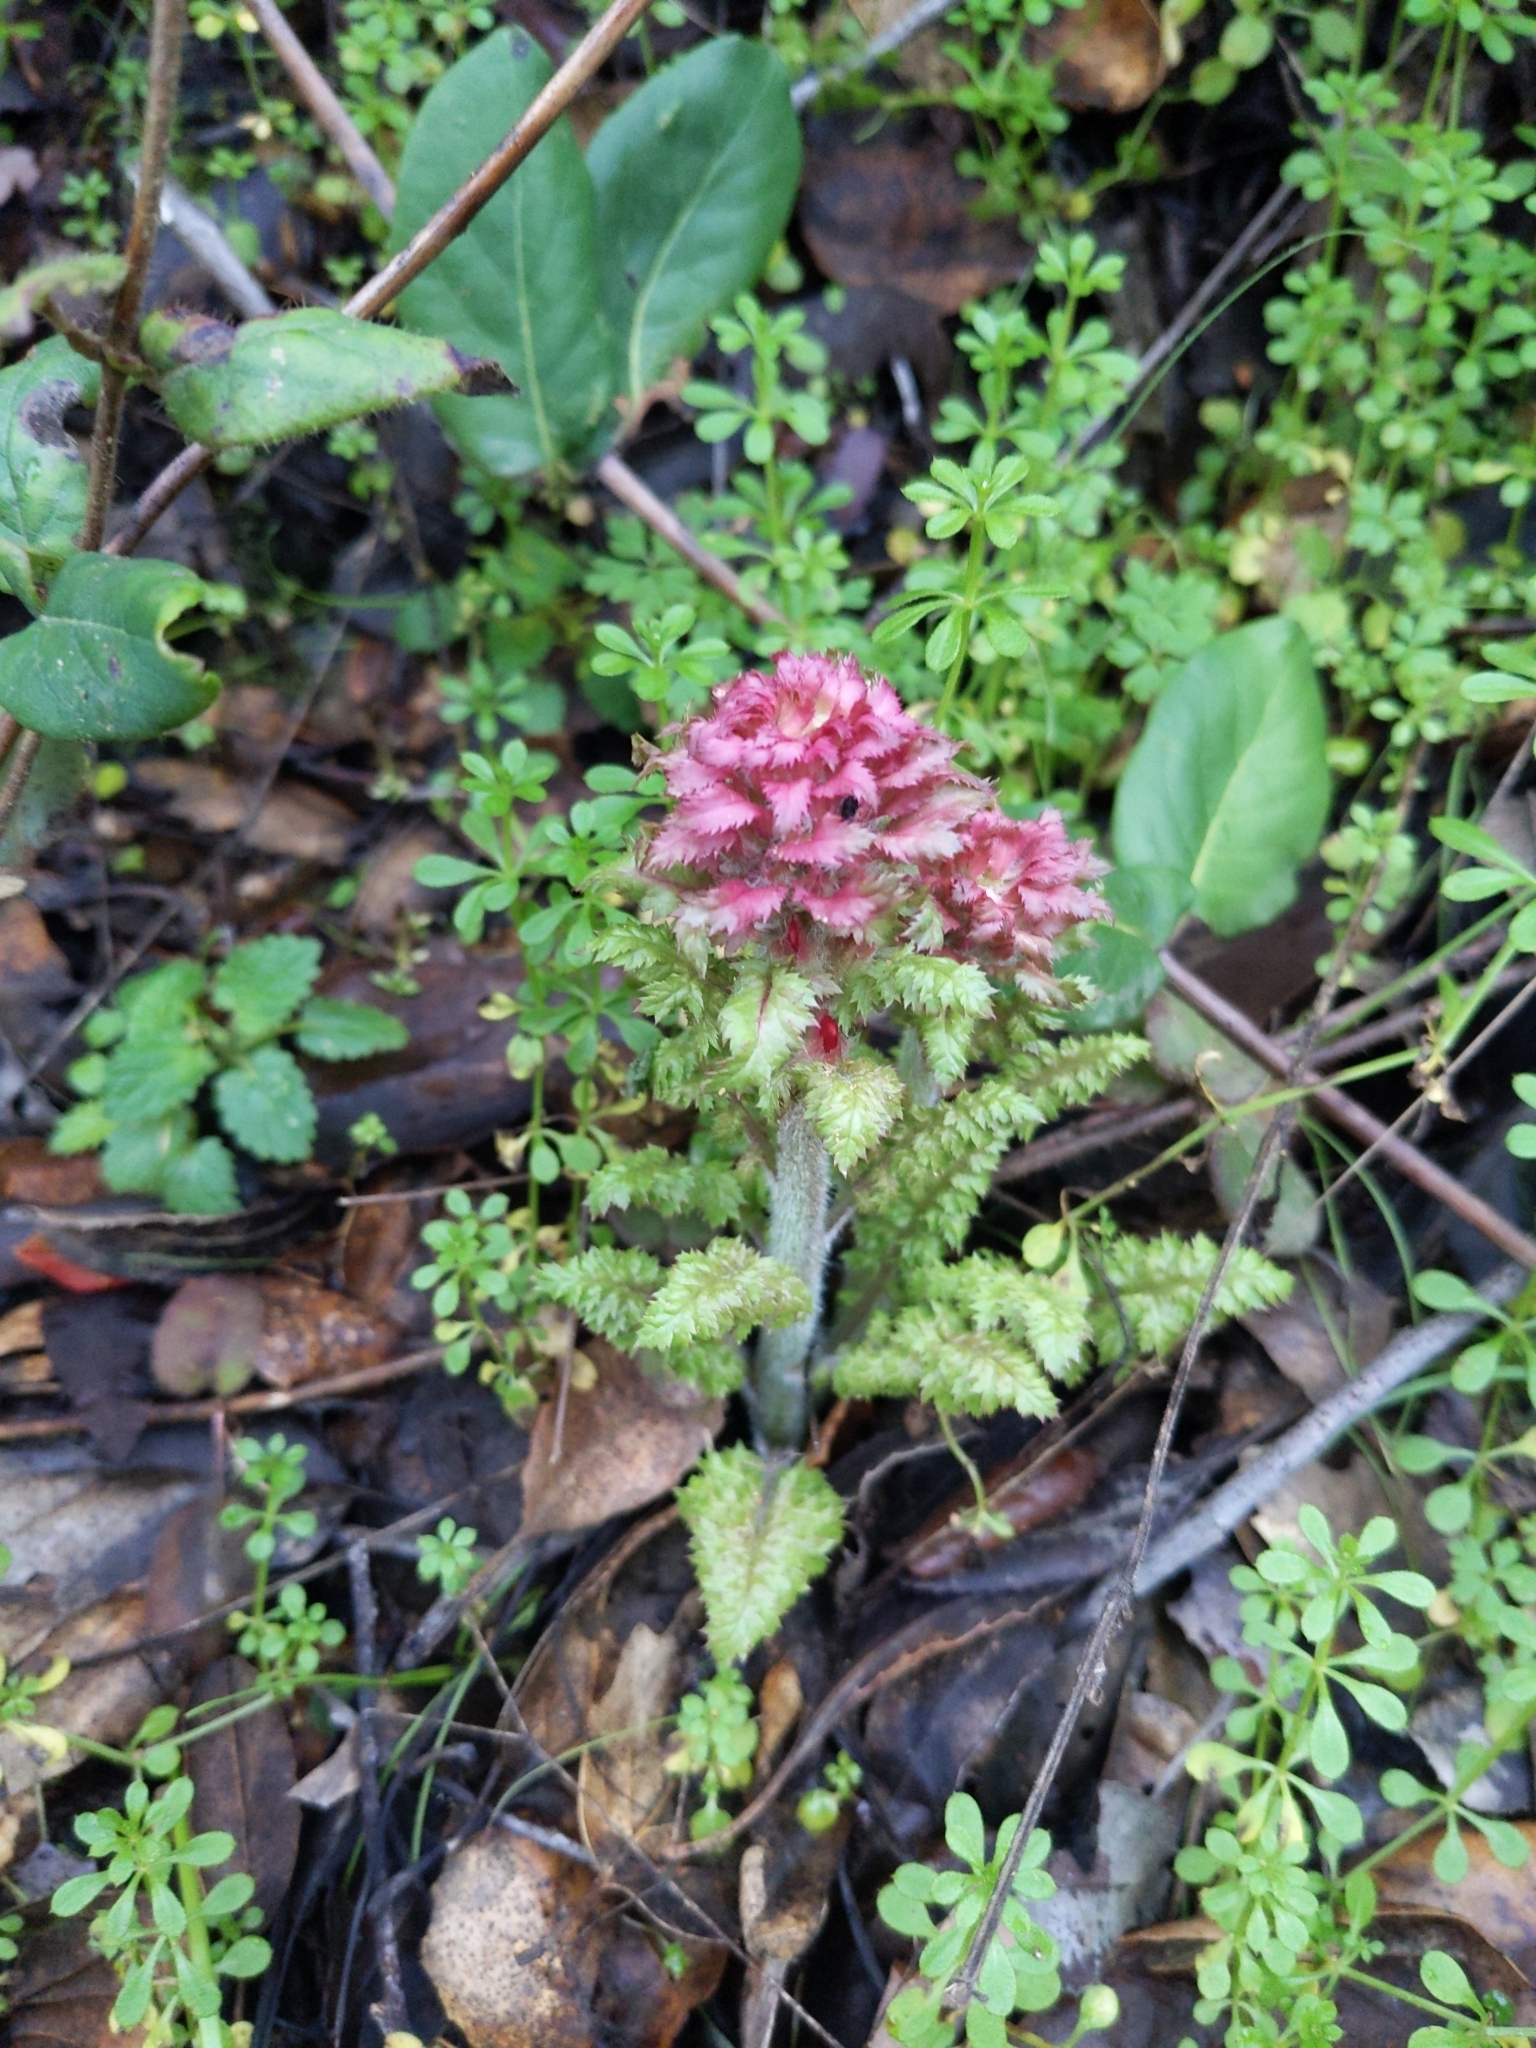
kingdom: Plantae
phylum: Tracheophyta
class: Magnoliopsida
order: Lamiales
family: Orobanchaceae
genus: Pedicularis
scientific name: Pedicularis densiflora
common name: Indian warrior
